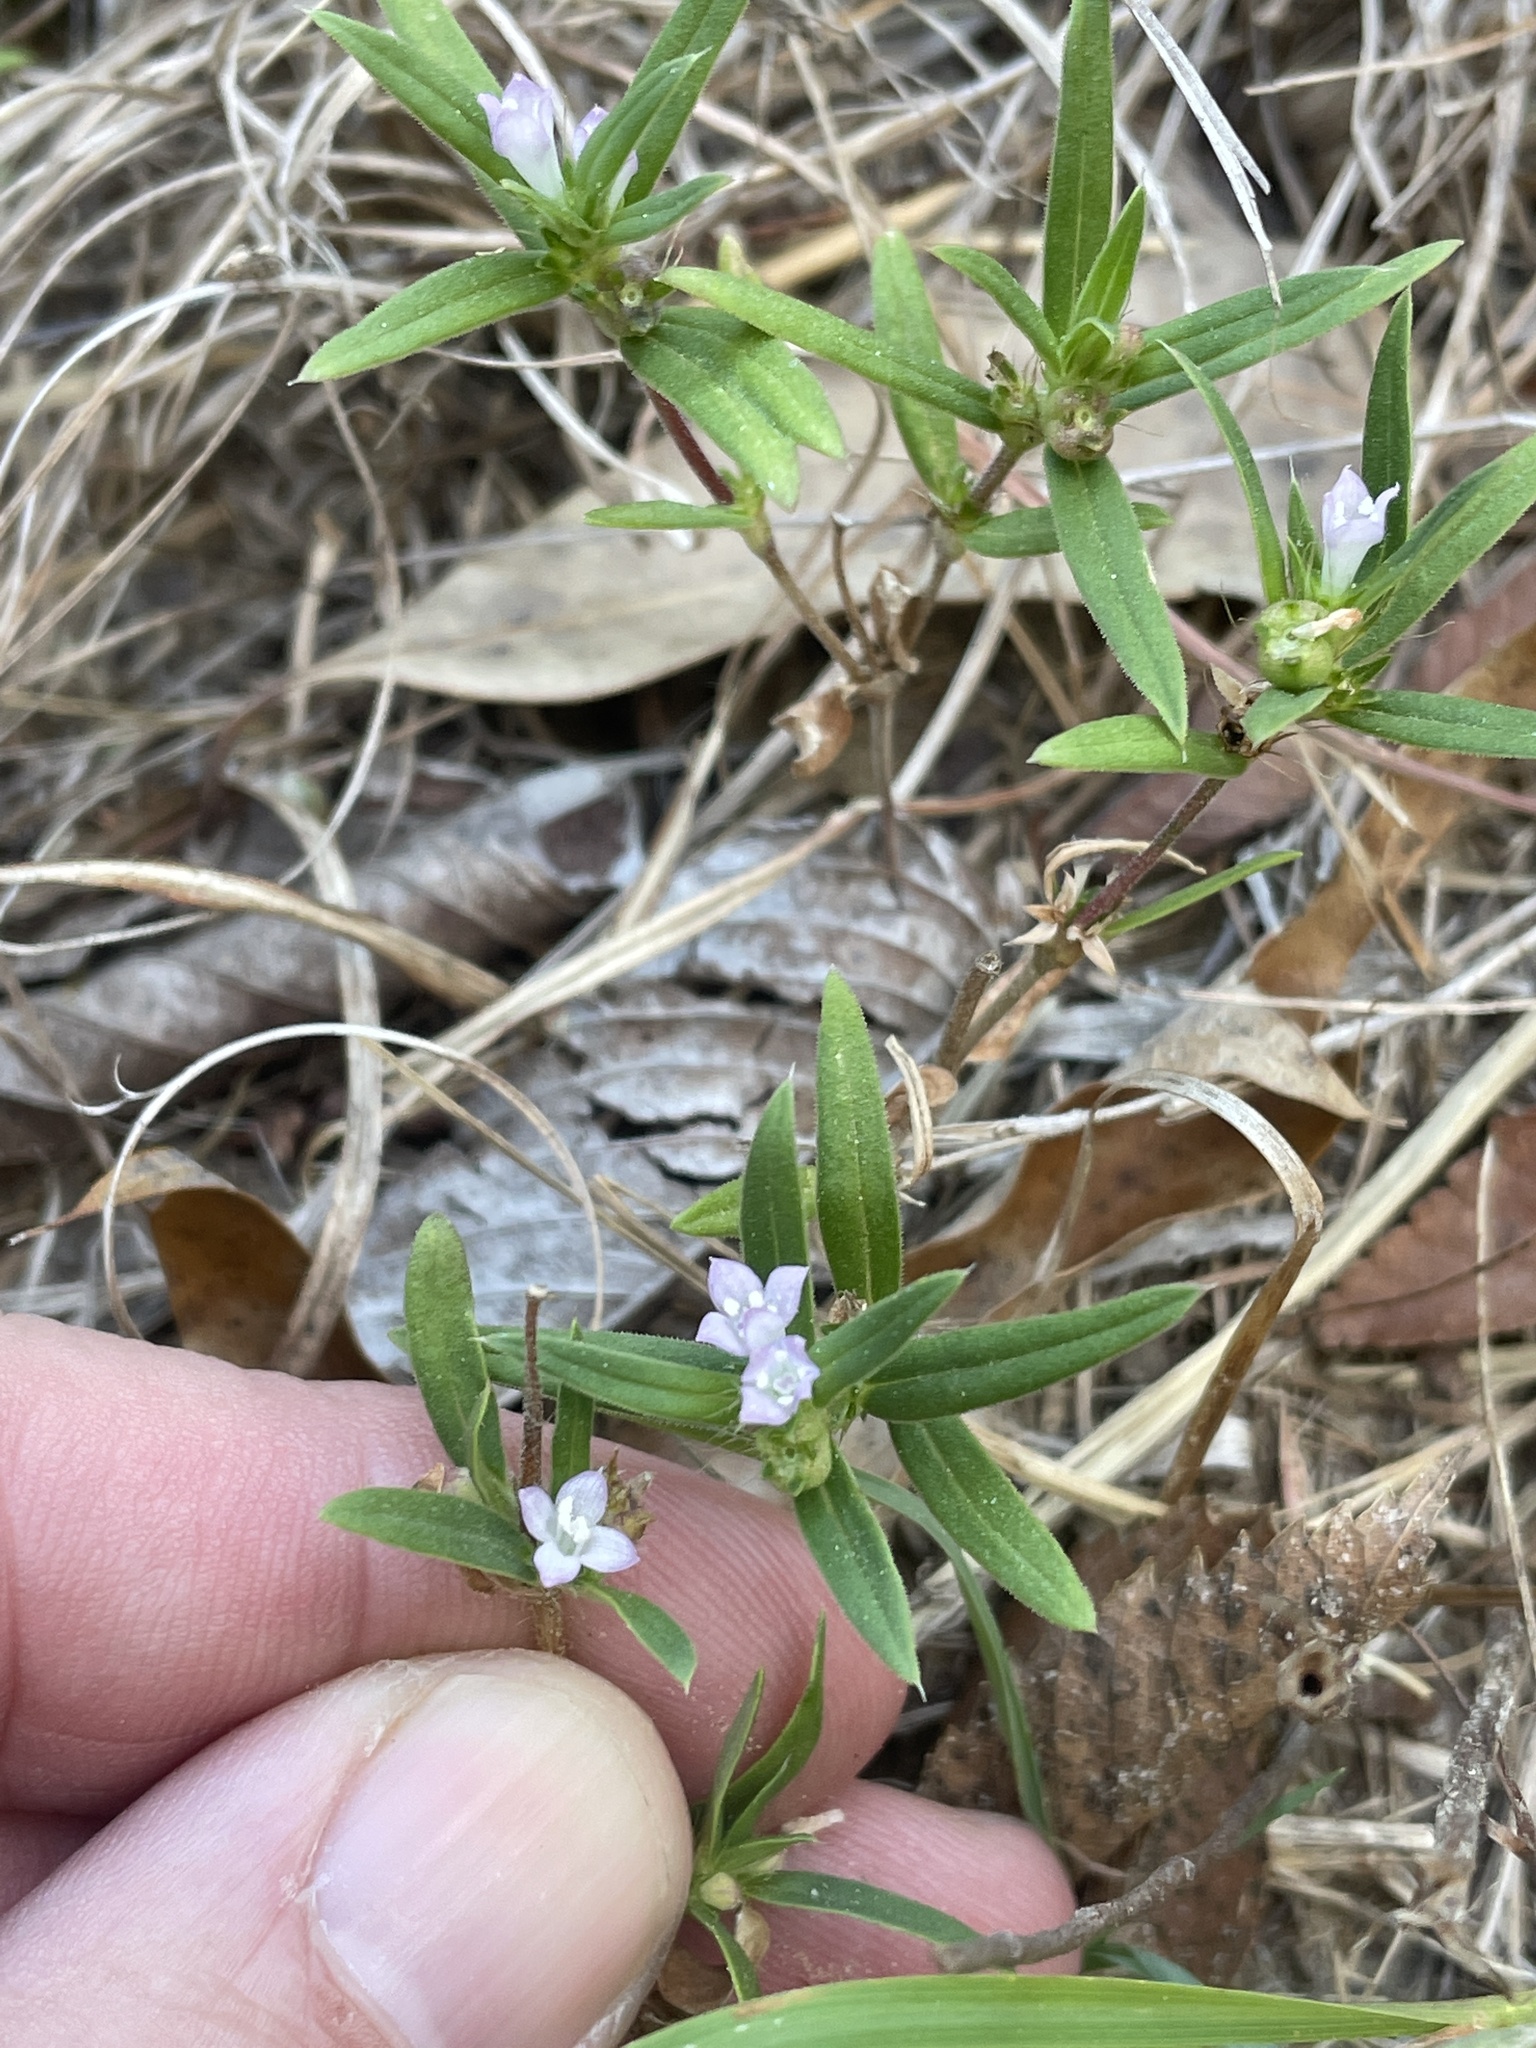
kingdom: Plantae
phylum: Tracheophyta
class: Magnoliopsida
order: Gentianales
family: Rubiaceae
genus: Hexasepalum
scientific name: Hexasepalum teres
